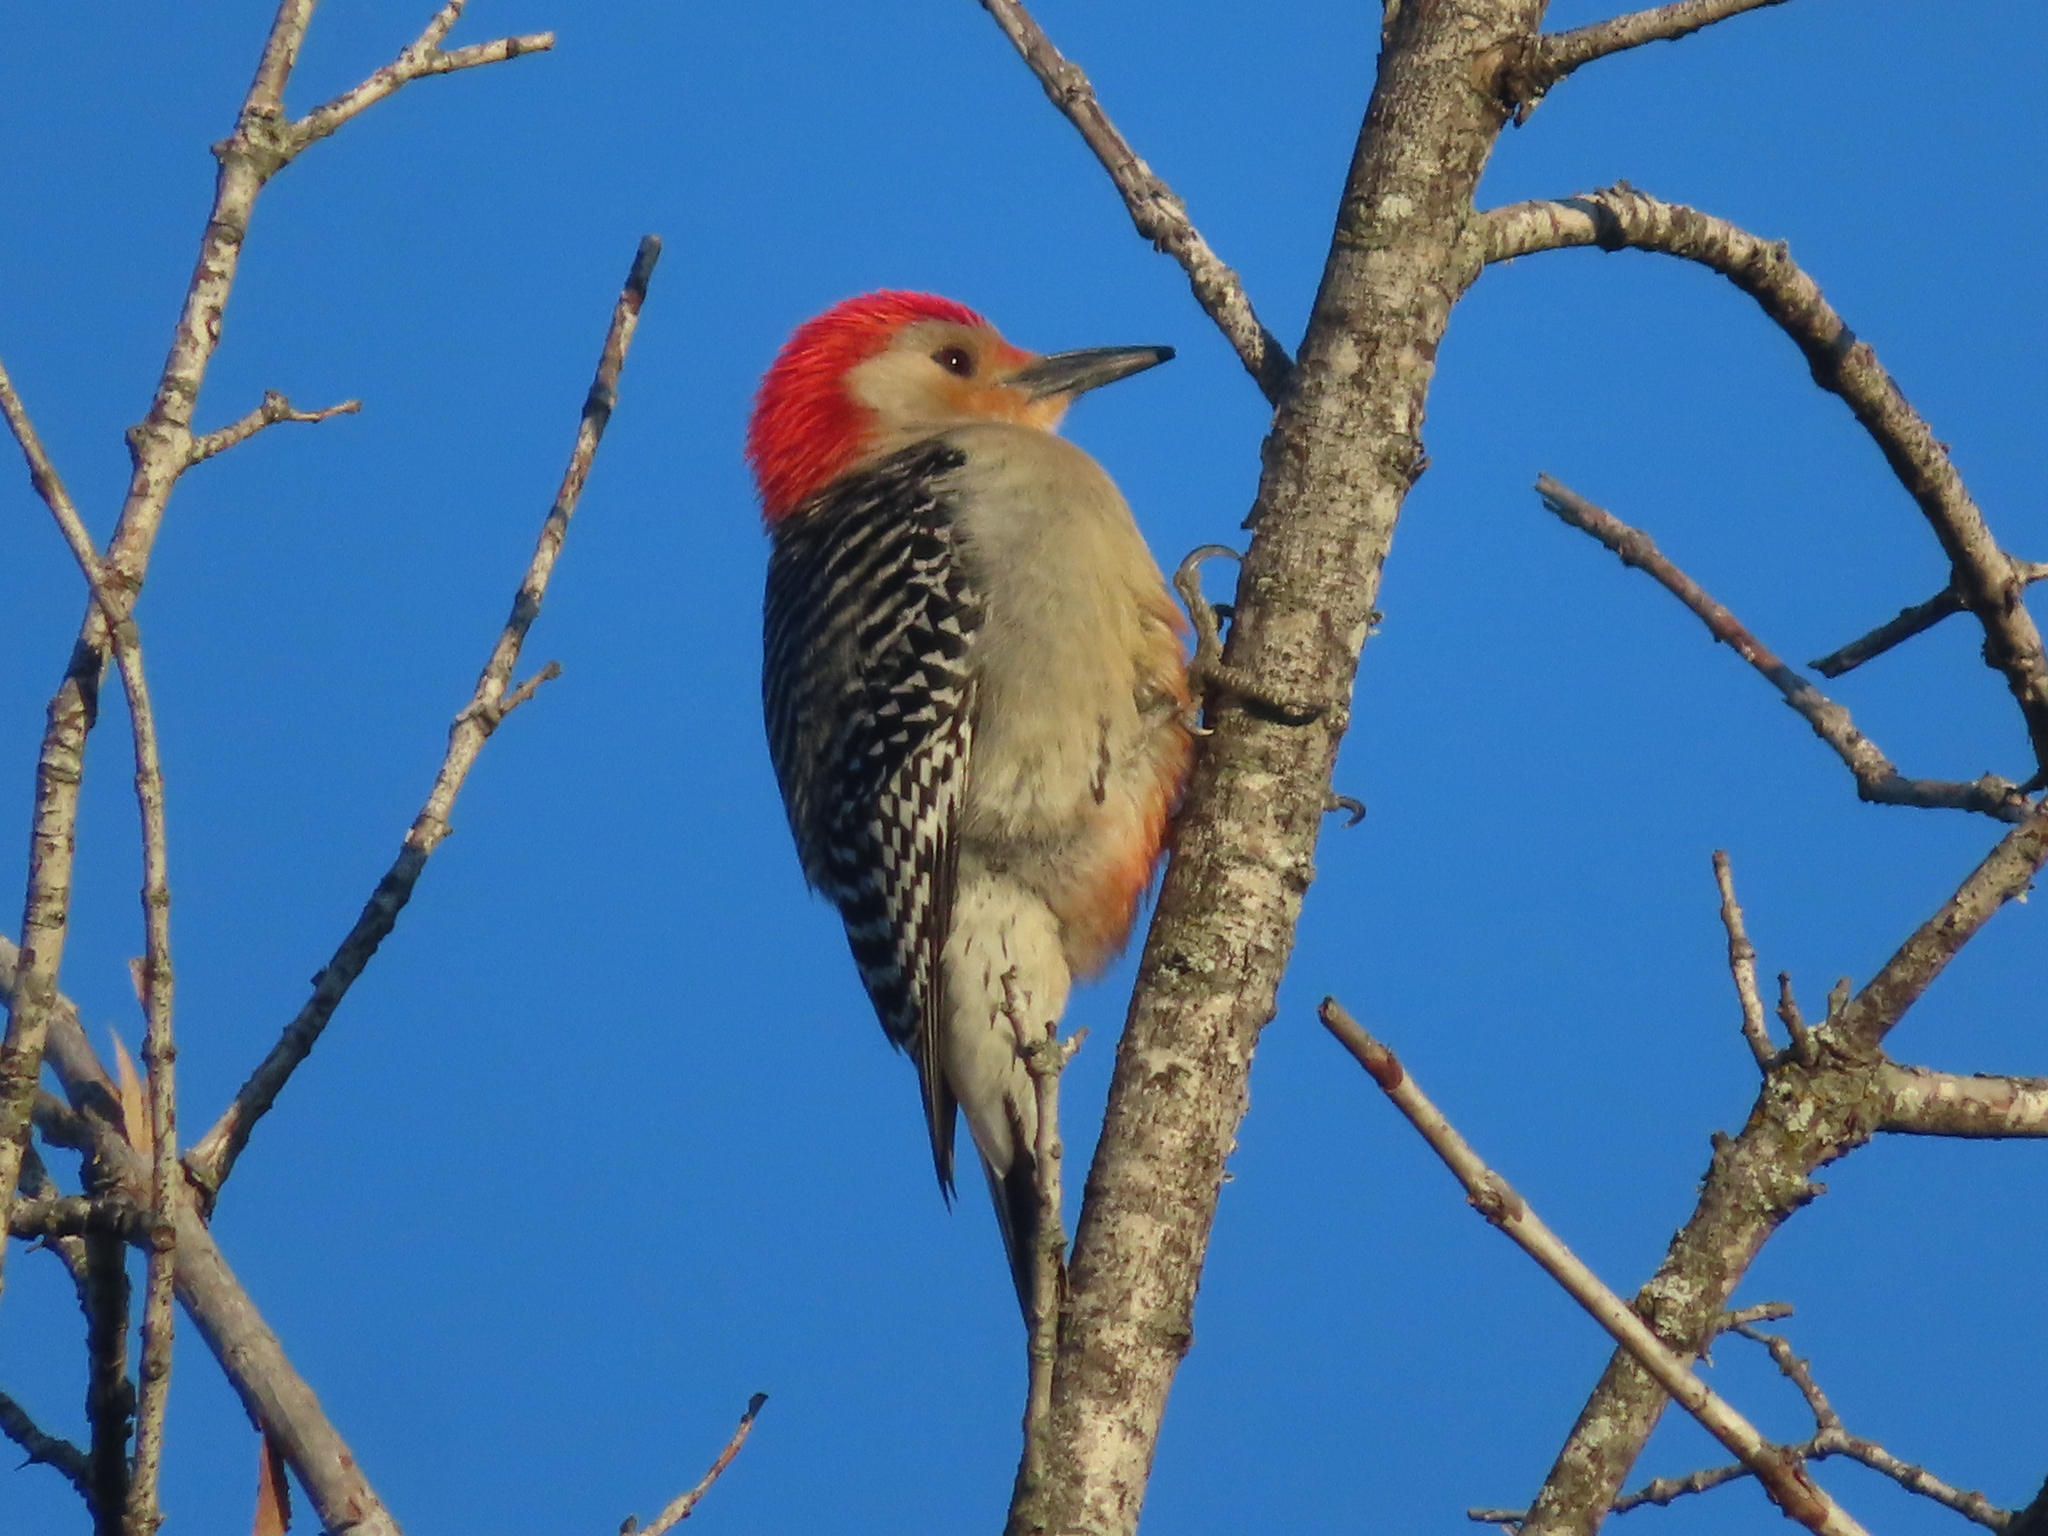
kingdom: Animalia
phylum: Chordata
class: Aves
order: Piciformes
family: Picidae
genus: Melanerpes
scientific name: Melanerpes carolinus
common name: Red-bellied woodpecker
